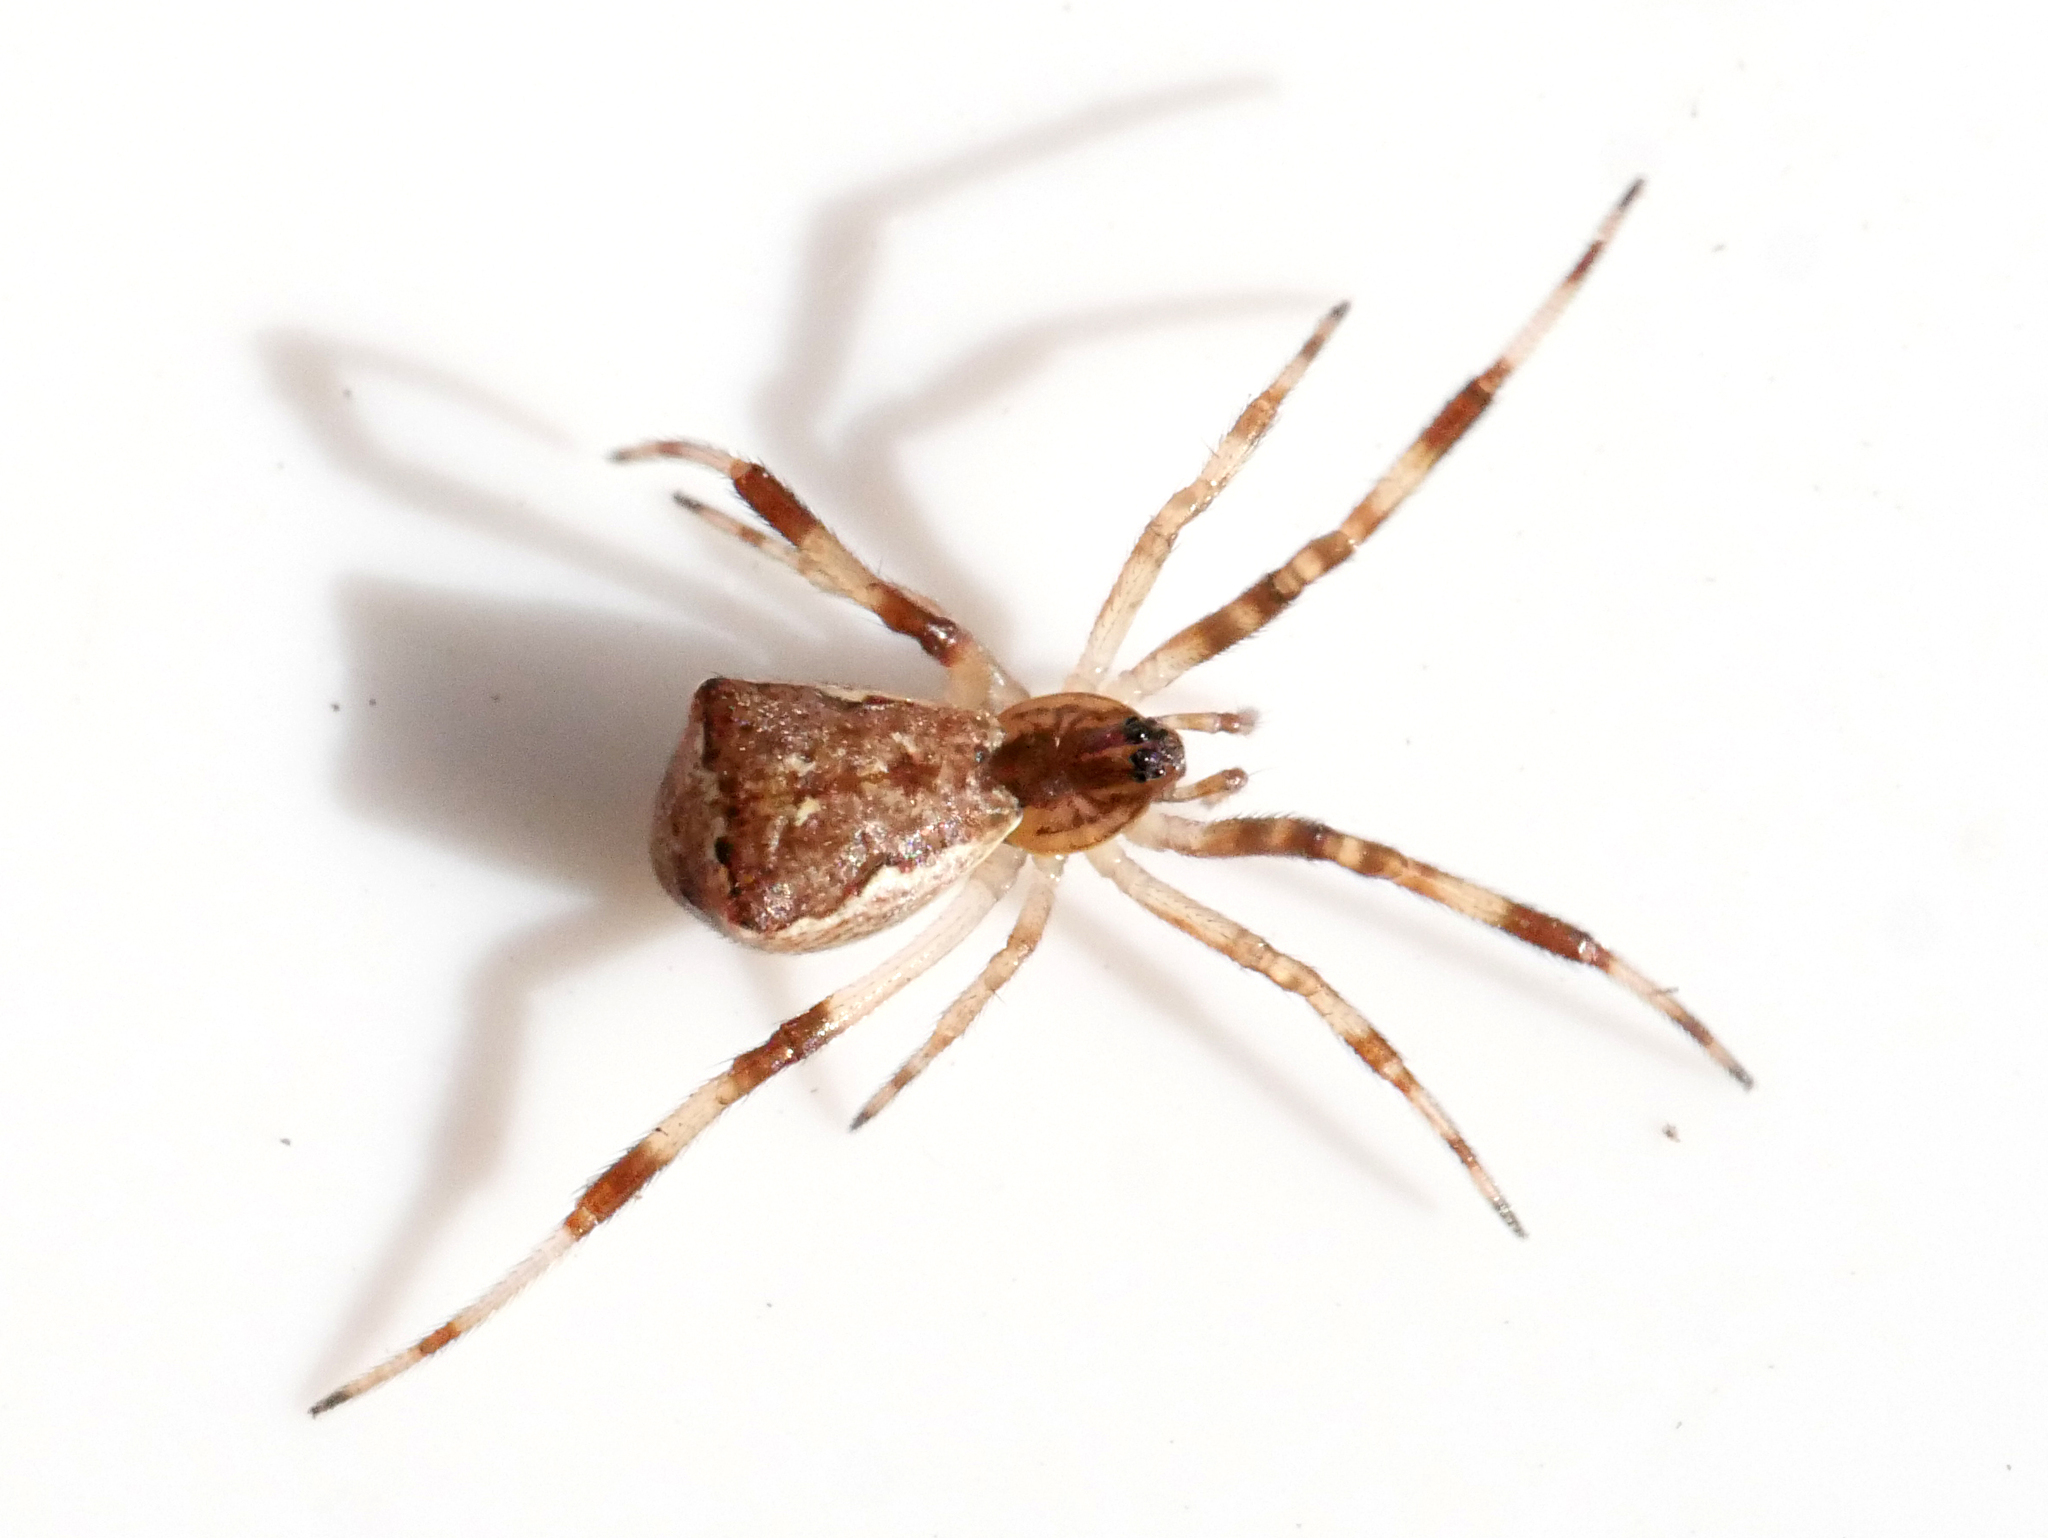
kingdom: Animalia
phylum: Arthropoda
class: Arachnida
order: Araneae
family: Theridiidae
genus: Episinus
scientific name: Episinus angulatus
